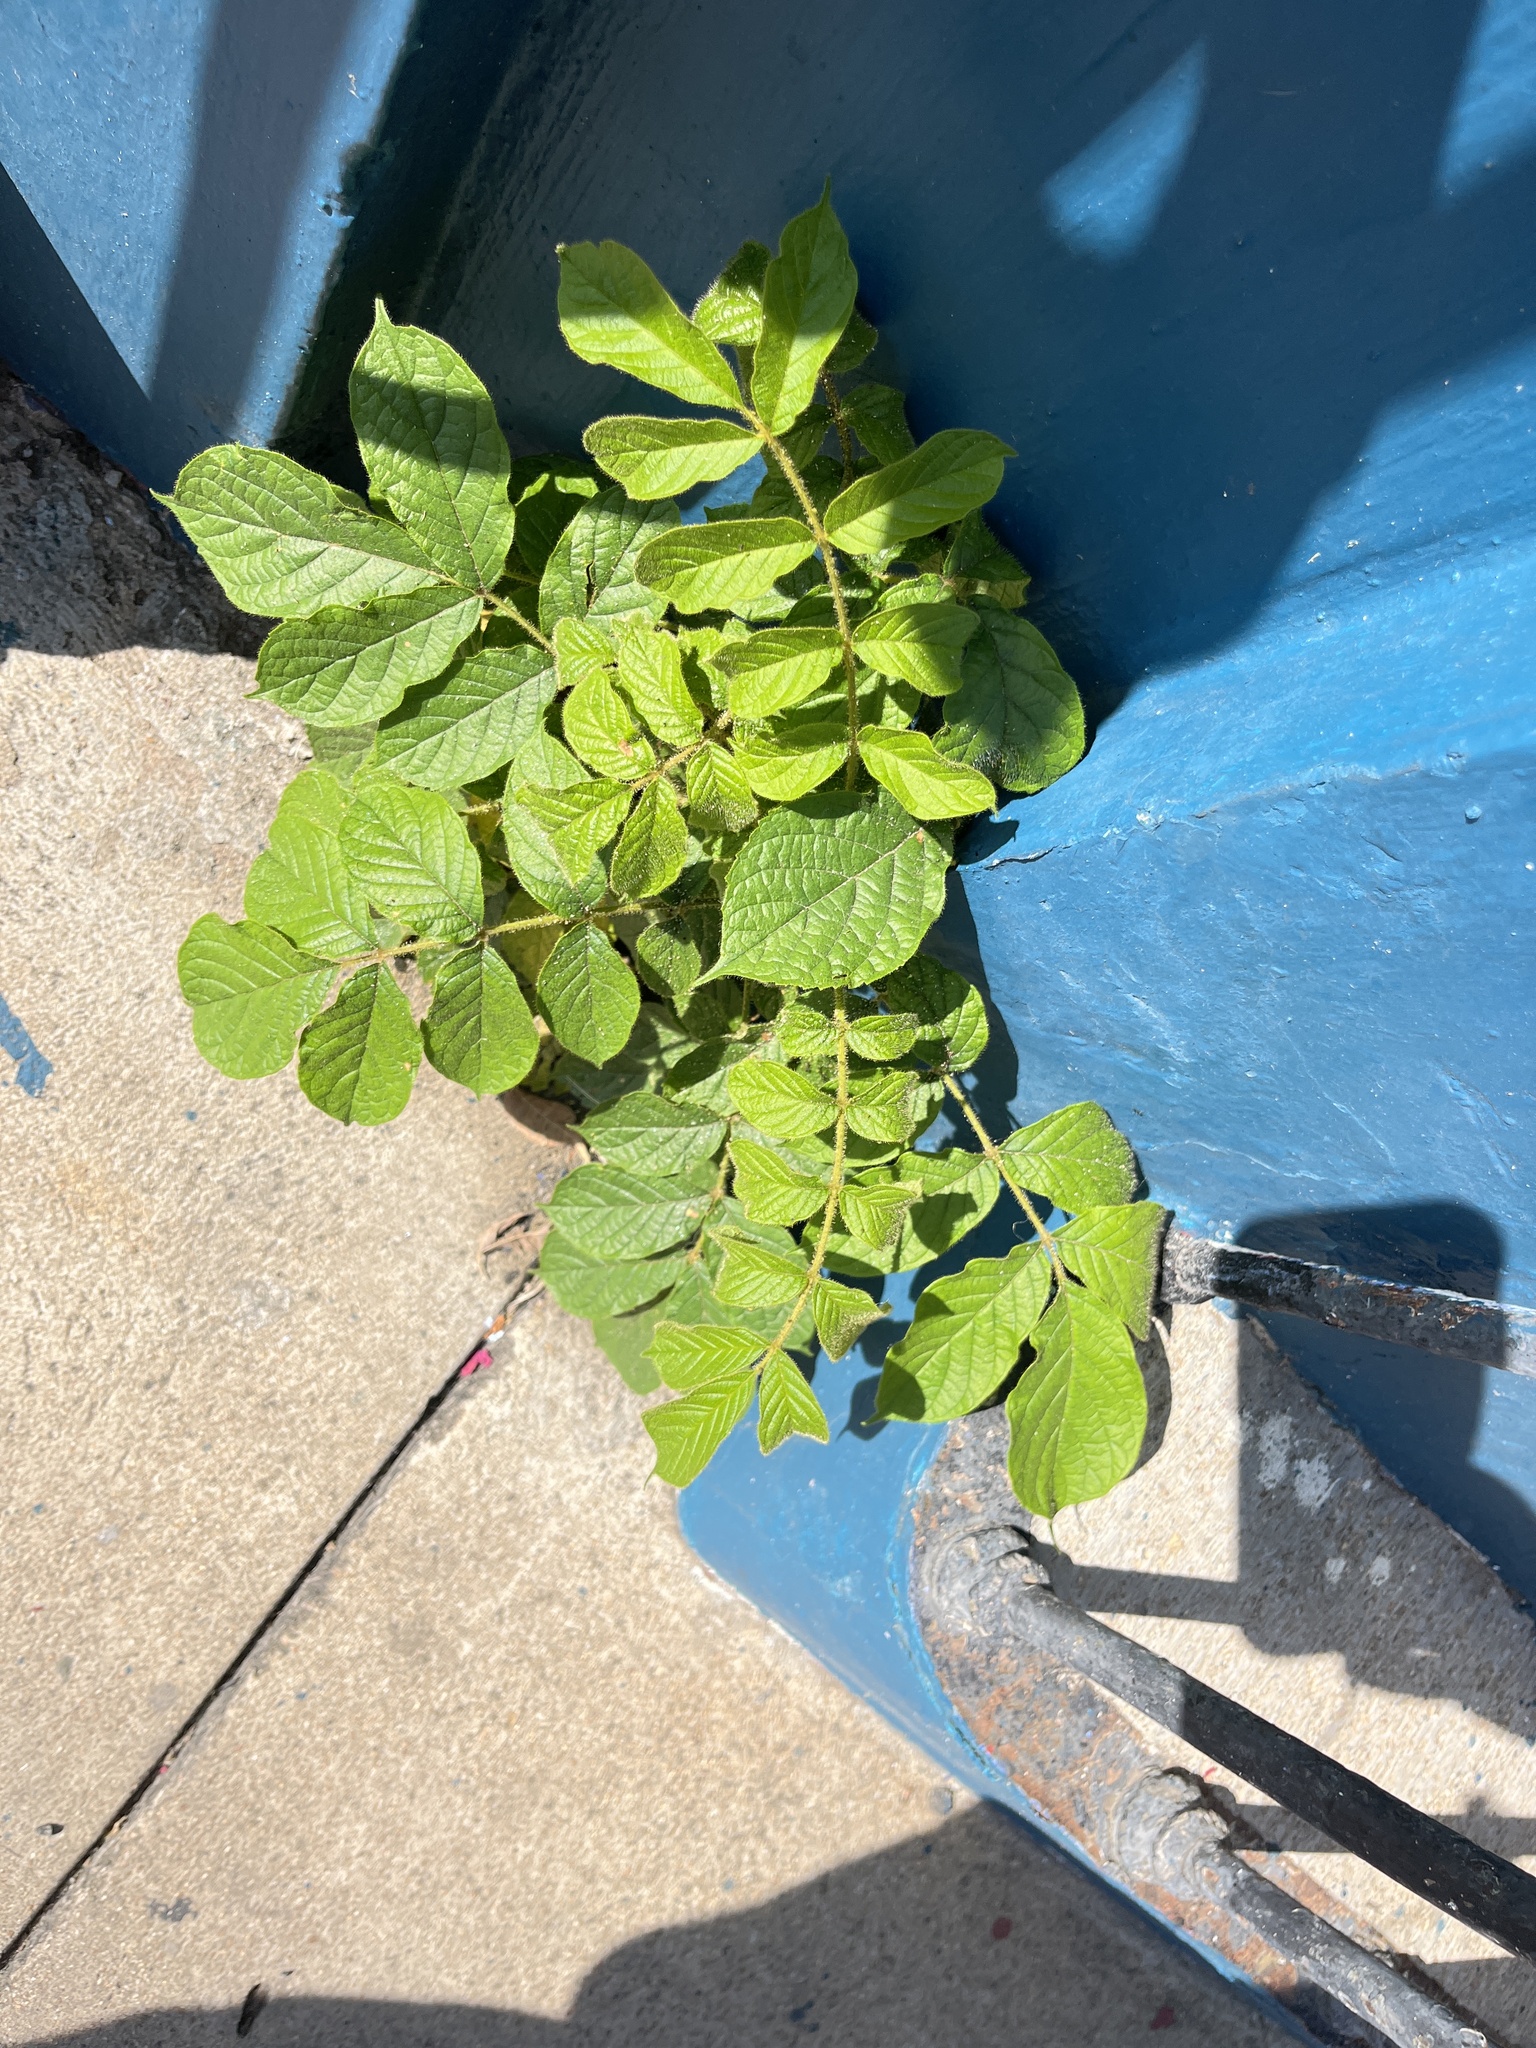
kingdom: Plantae
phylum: Tracheophyta
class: Magnoliopsida
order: Lamiales
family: Bignoniaceae
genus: Spathodea
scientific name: Spathodea campanulata
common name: African tuliptree
